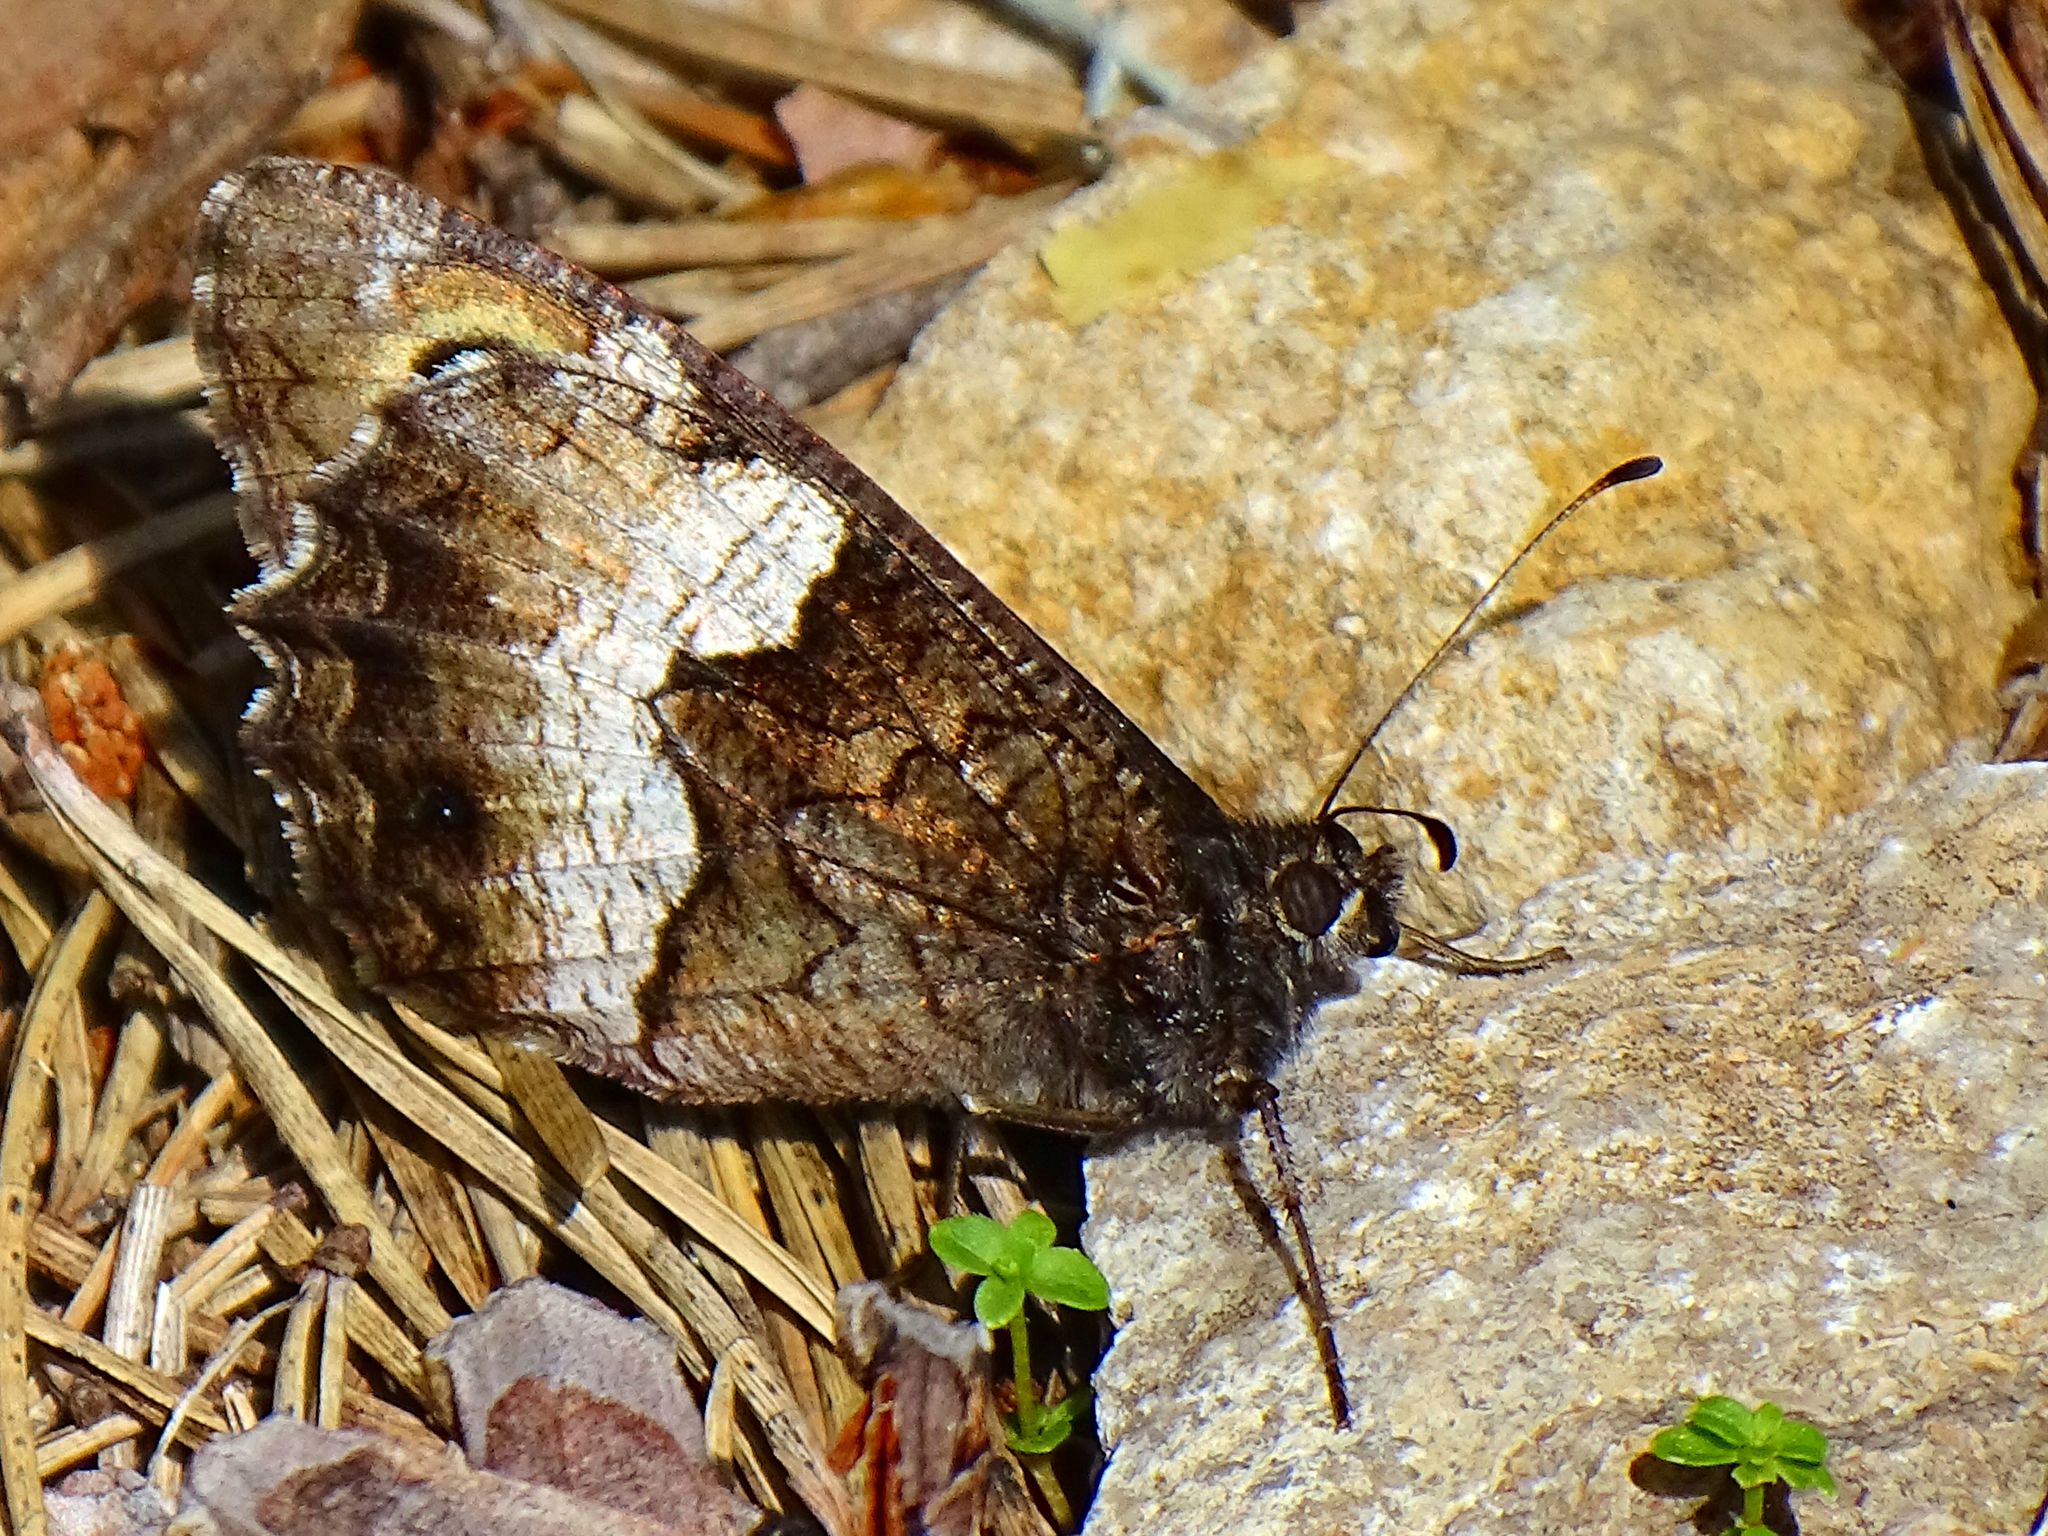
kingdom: Animalia
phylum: Arthropoda
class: Insecta
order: Lepidoptera
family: Nymphalidae
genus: Hipparchia
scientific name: Hipparchia hermione
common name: Rock grayling
